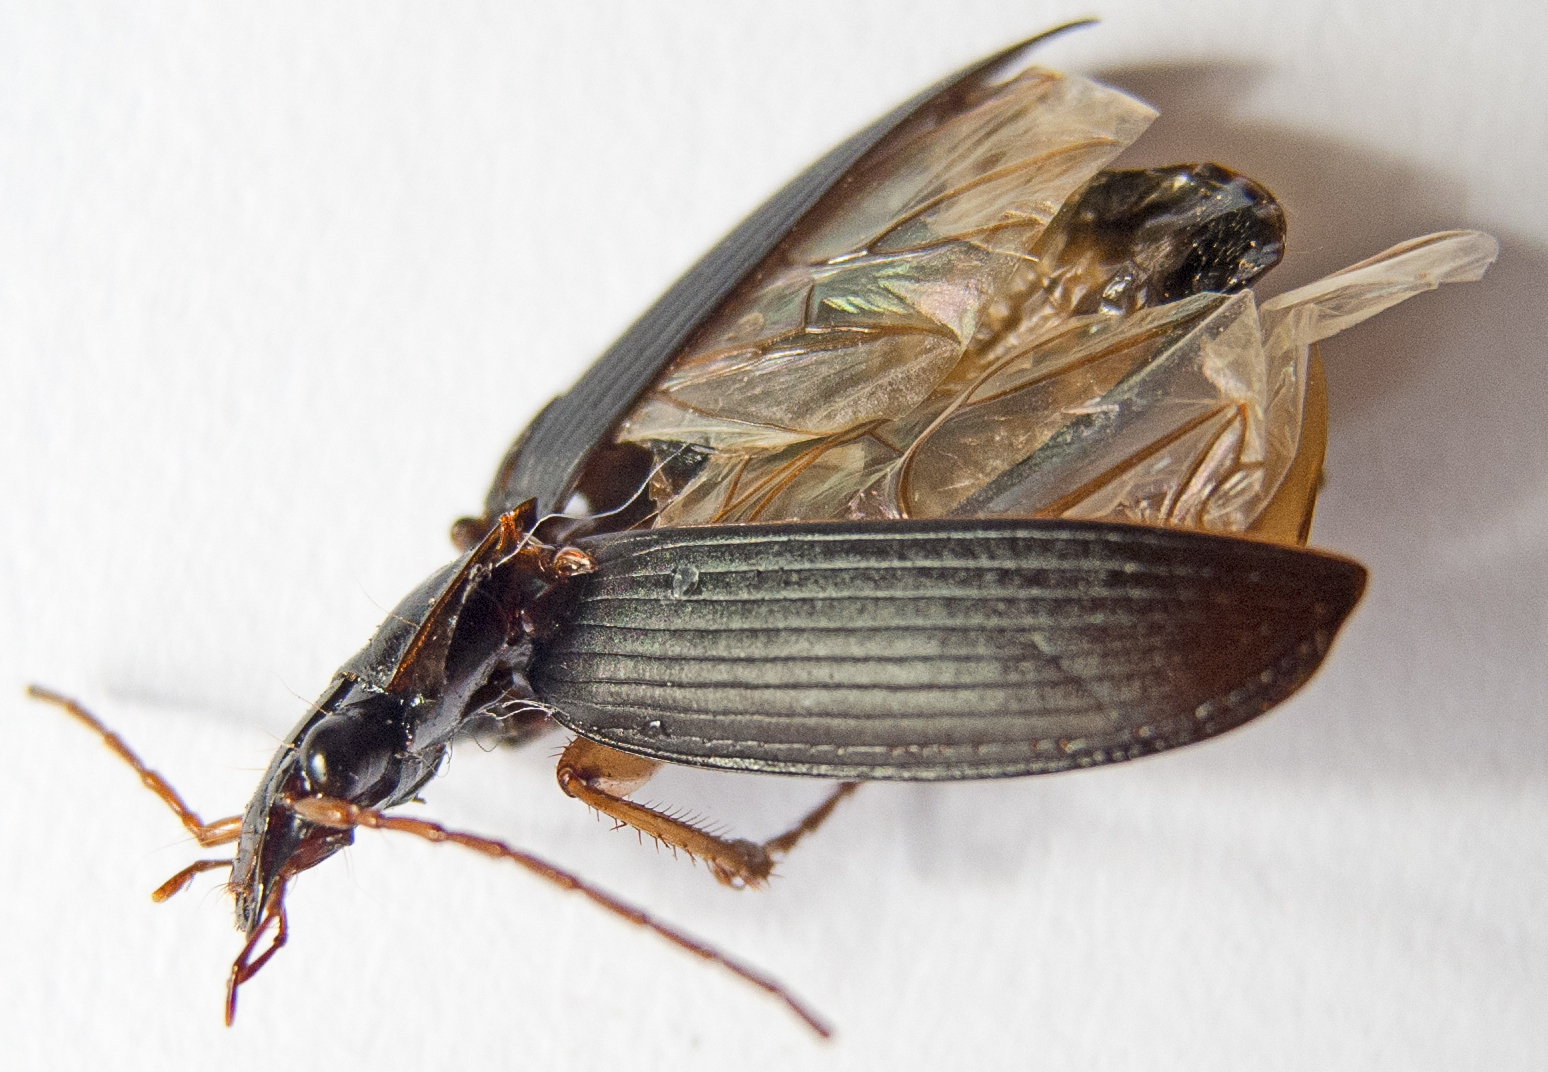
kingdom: Animalia
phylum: Arthropoda
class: Insecta
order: Coleoptera
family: Carabidae
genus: Dolichus
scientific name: Dolichus halensis
